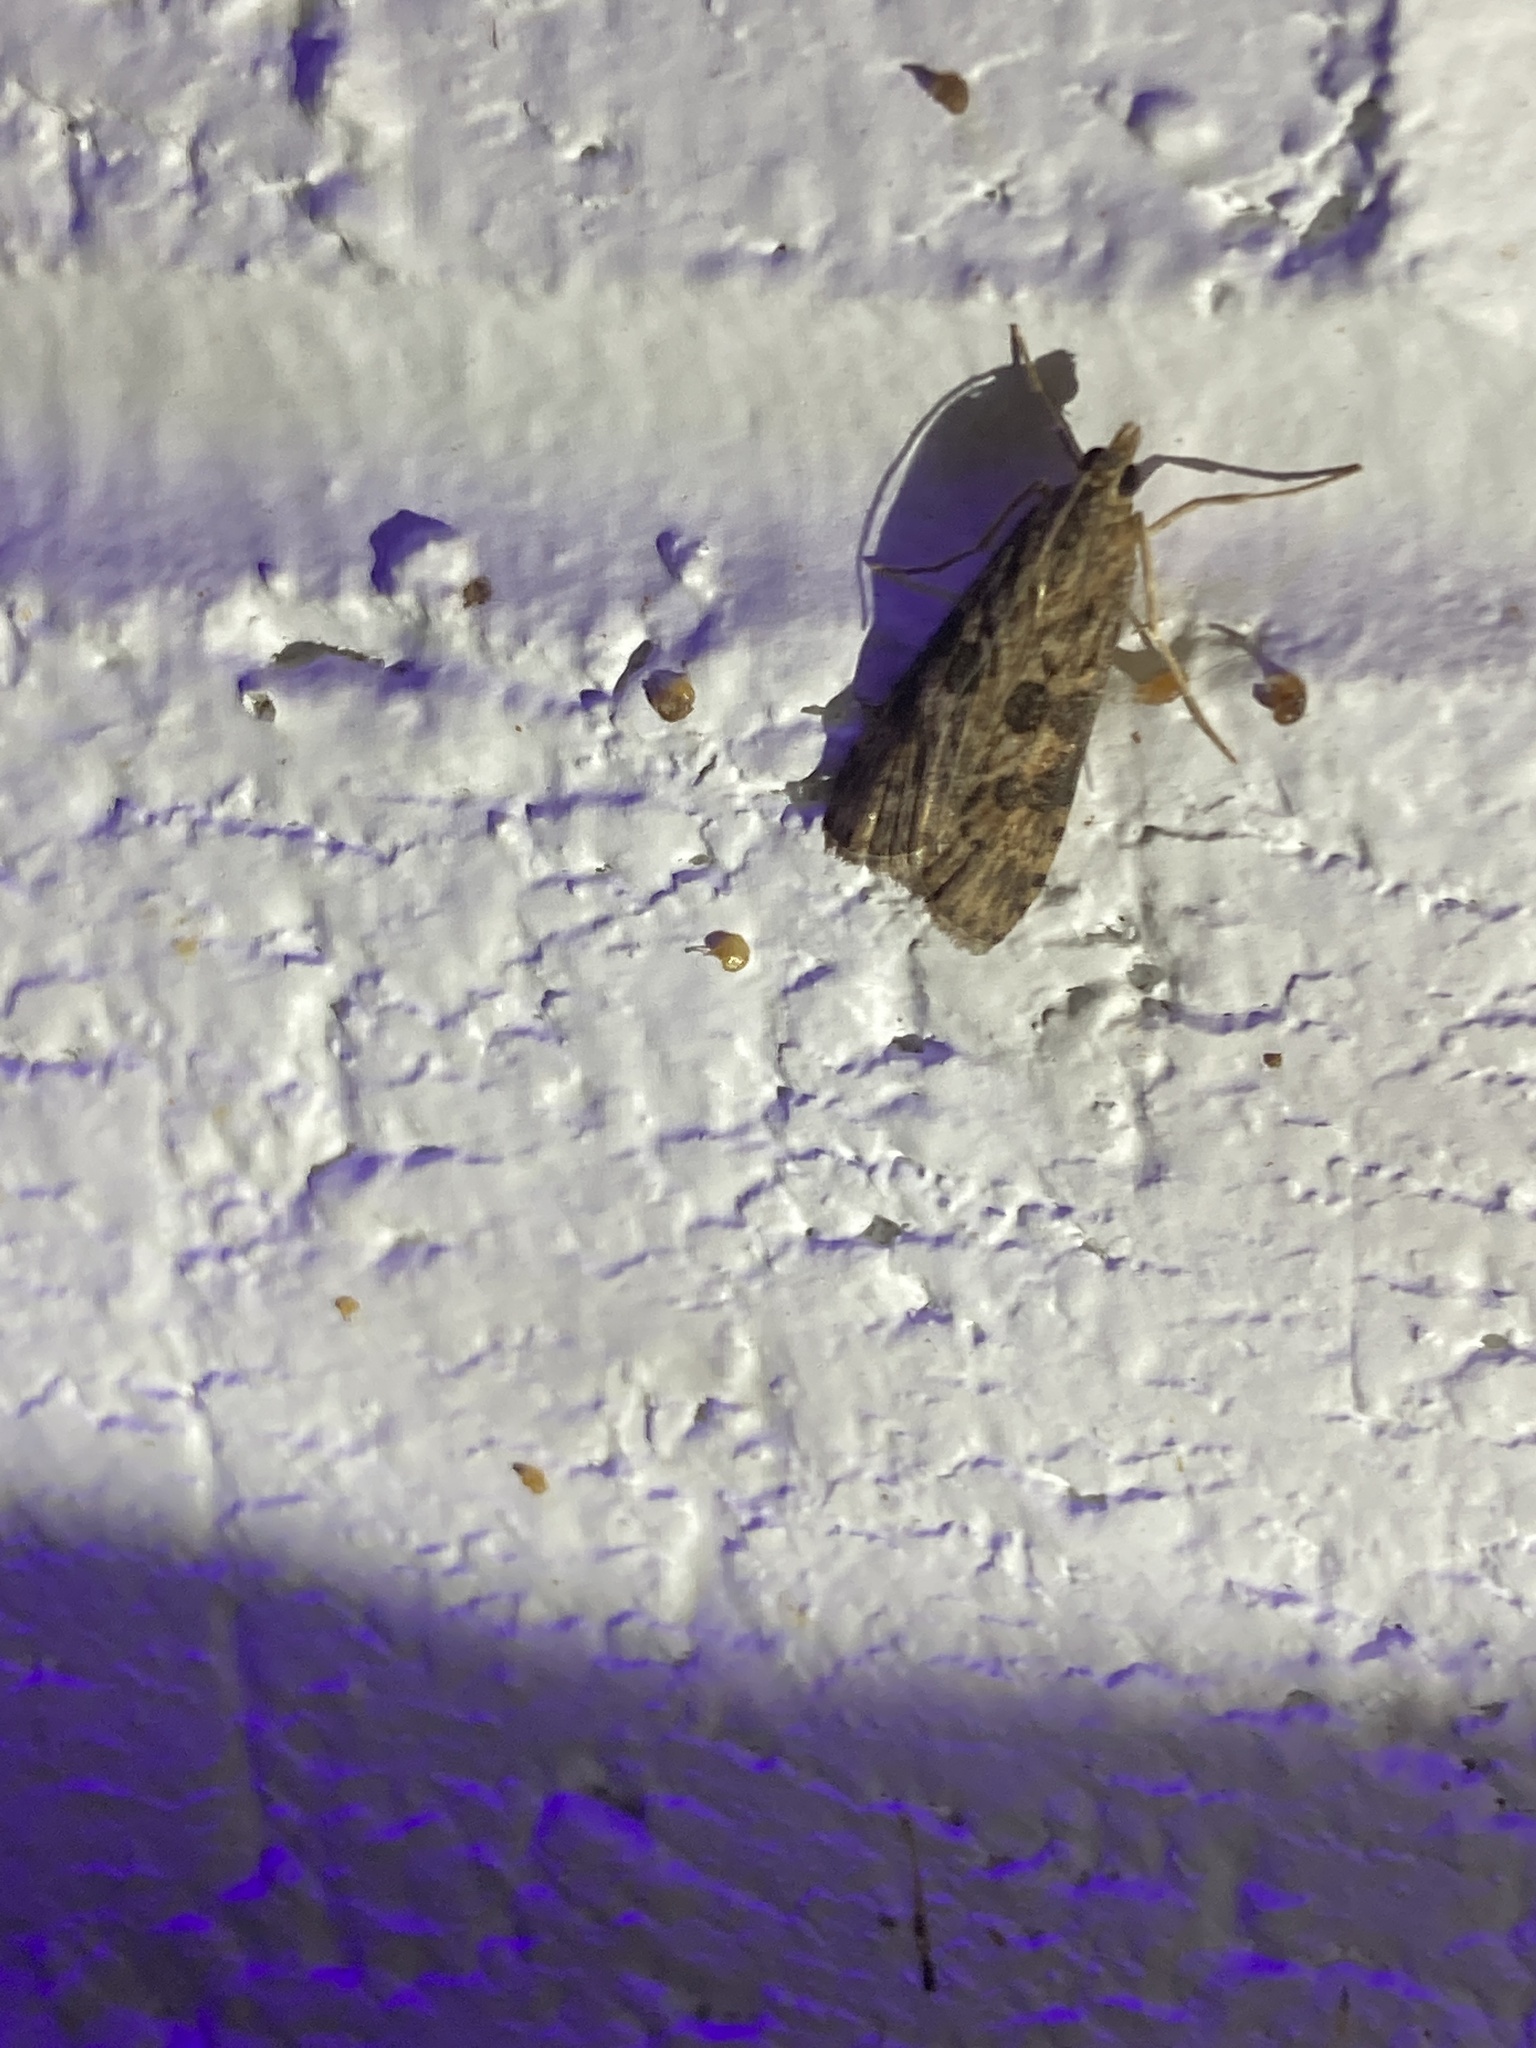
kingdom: Animalia
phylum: Arthropoda
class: Insecta
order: Lepidoptera
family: Crambidae
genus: Nomophila
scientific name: Nomophila nearctica
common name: American rush veneer
